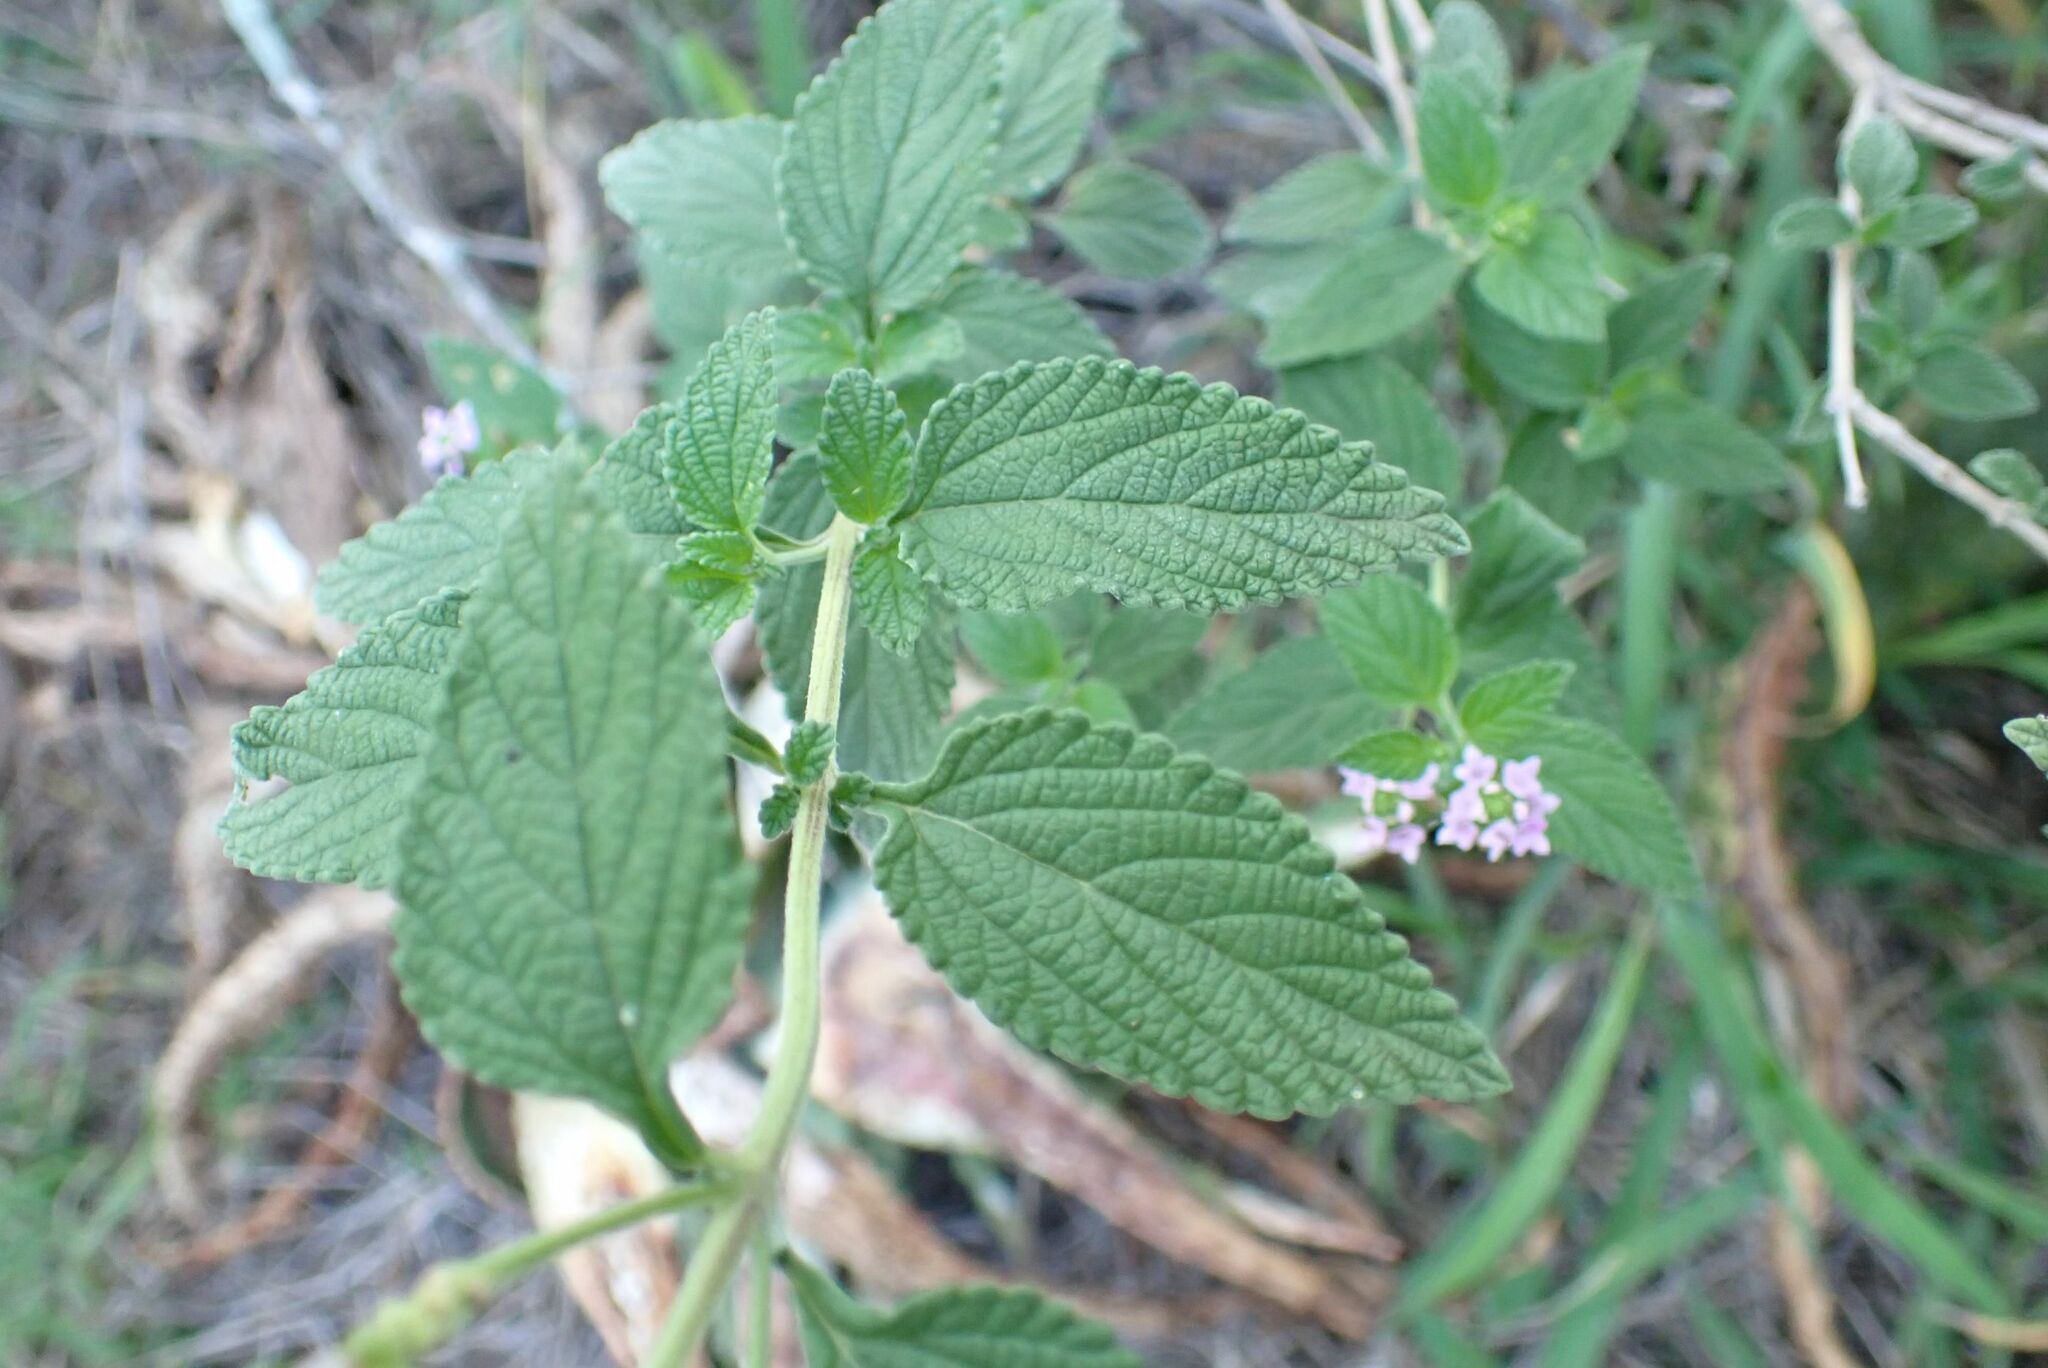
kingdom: Plantae
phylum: Tracheophyta
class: Magnoliopsida
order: Lamiales
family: Verbenaceae
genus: Lantana
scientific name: Lantana rugosa
